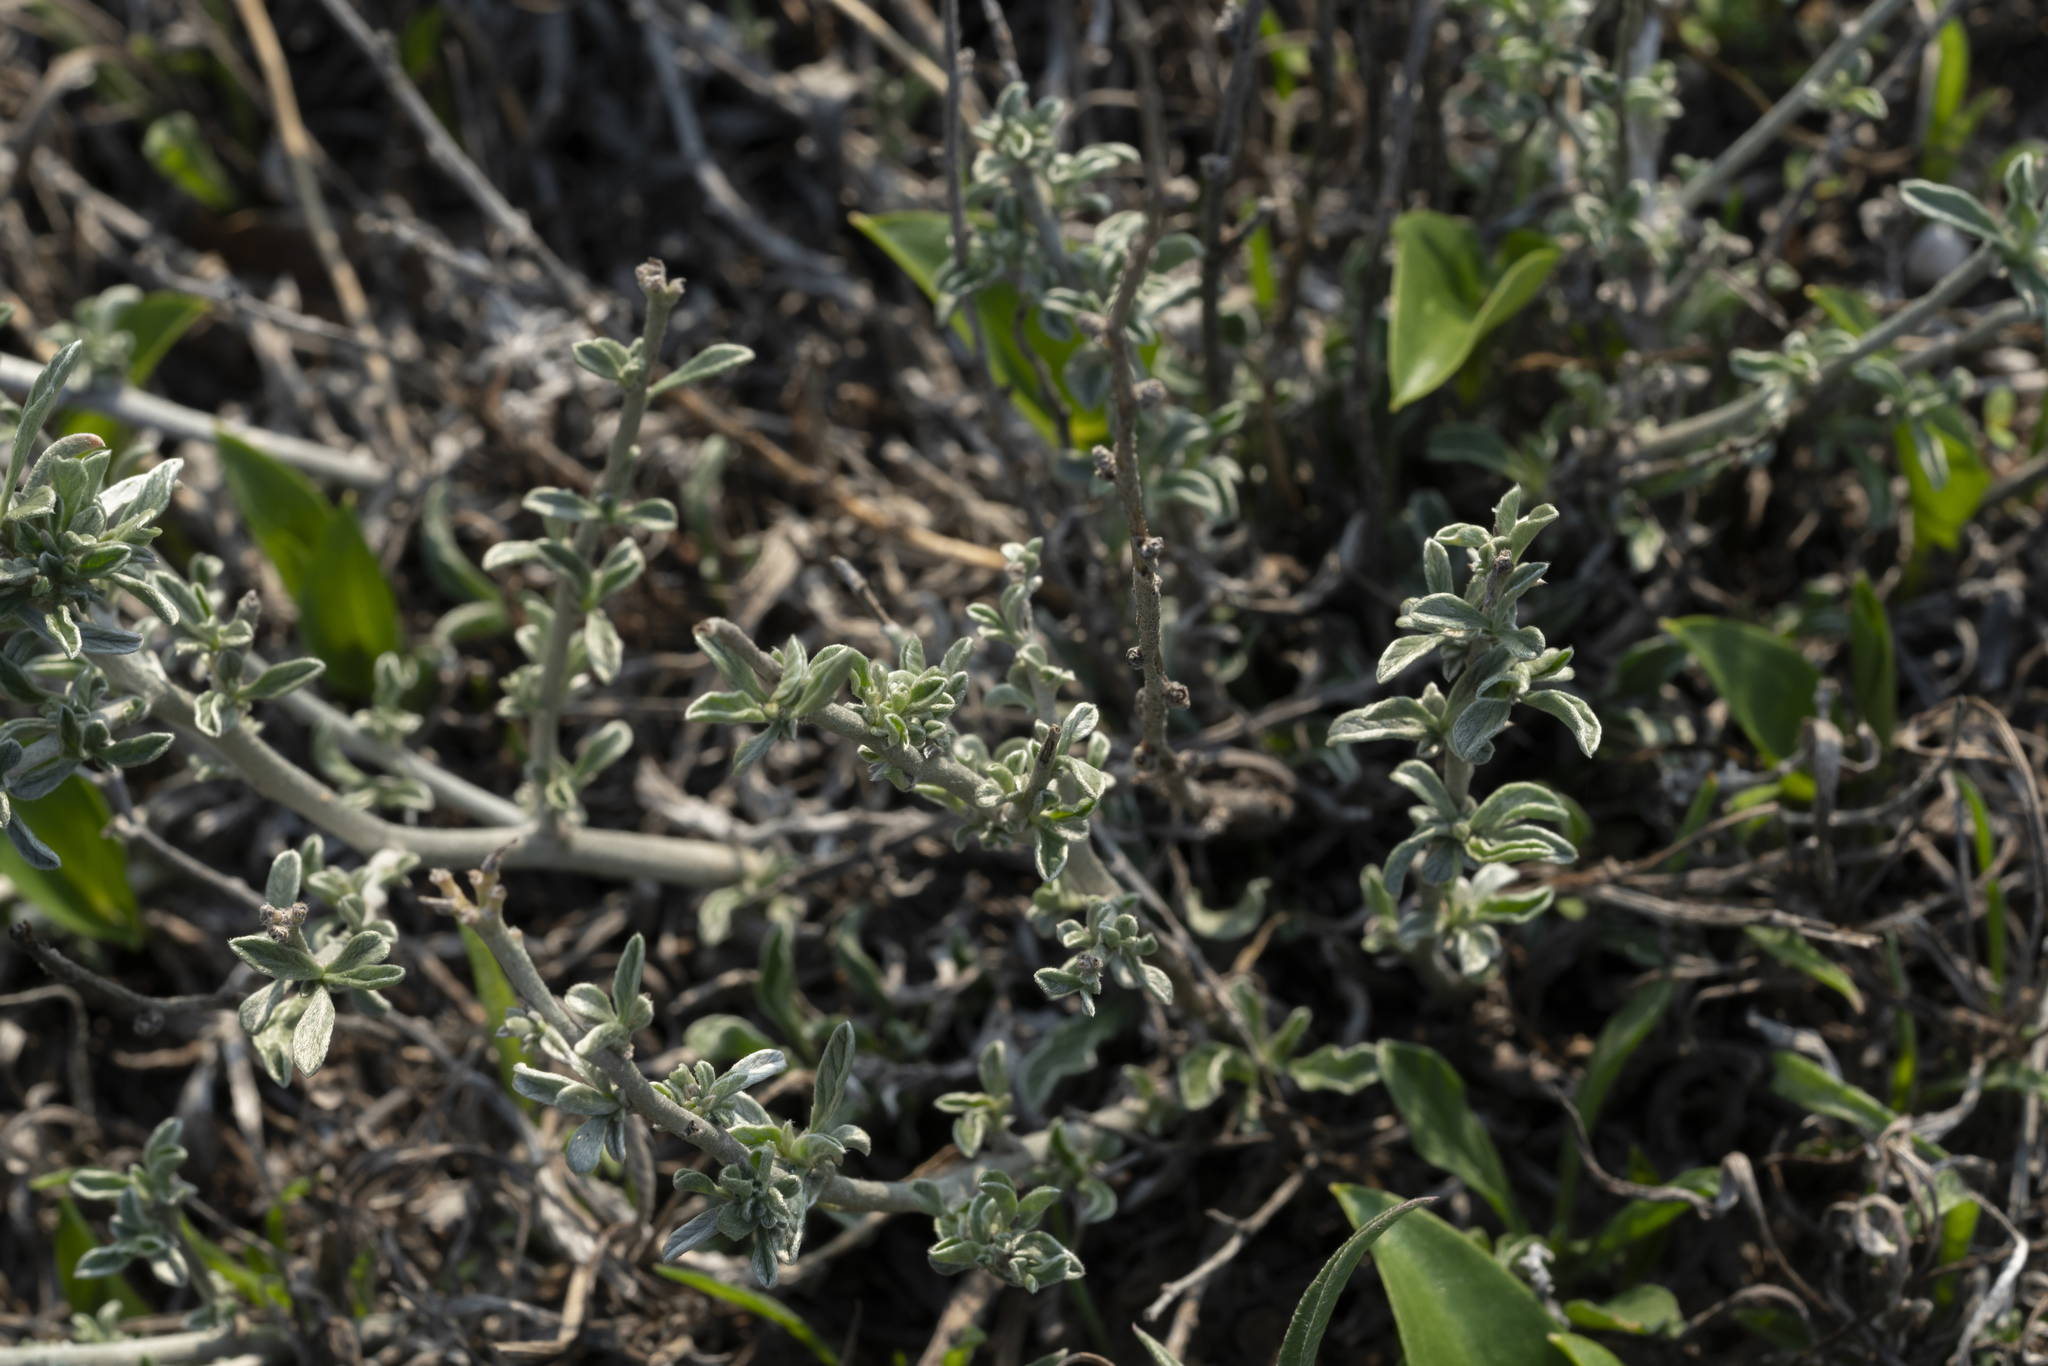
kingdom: Plantae
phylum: Tracheophyta
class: Magnoliopsida
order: Solanales
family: Convolvulaceae
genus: Convolvulus
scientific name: Convolvulus oleifolius
